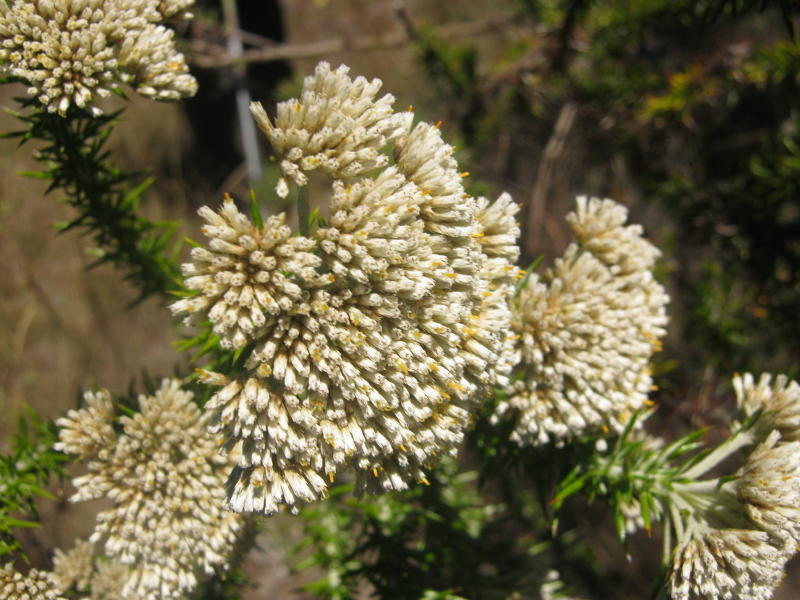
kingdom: Plantae
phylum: Tracheophyta
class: Magnoliopsida
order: Asterales
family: Asteraceae
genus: Metalasia
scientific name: Metalasia acuta
